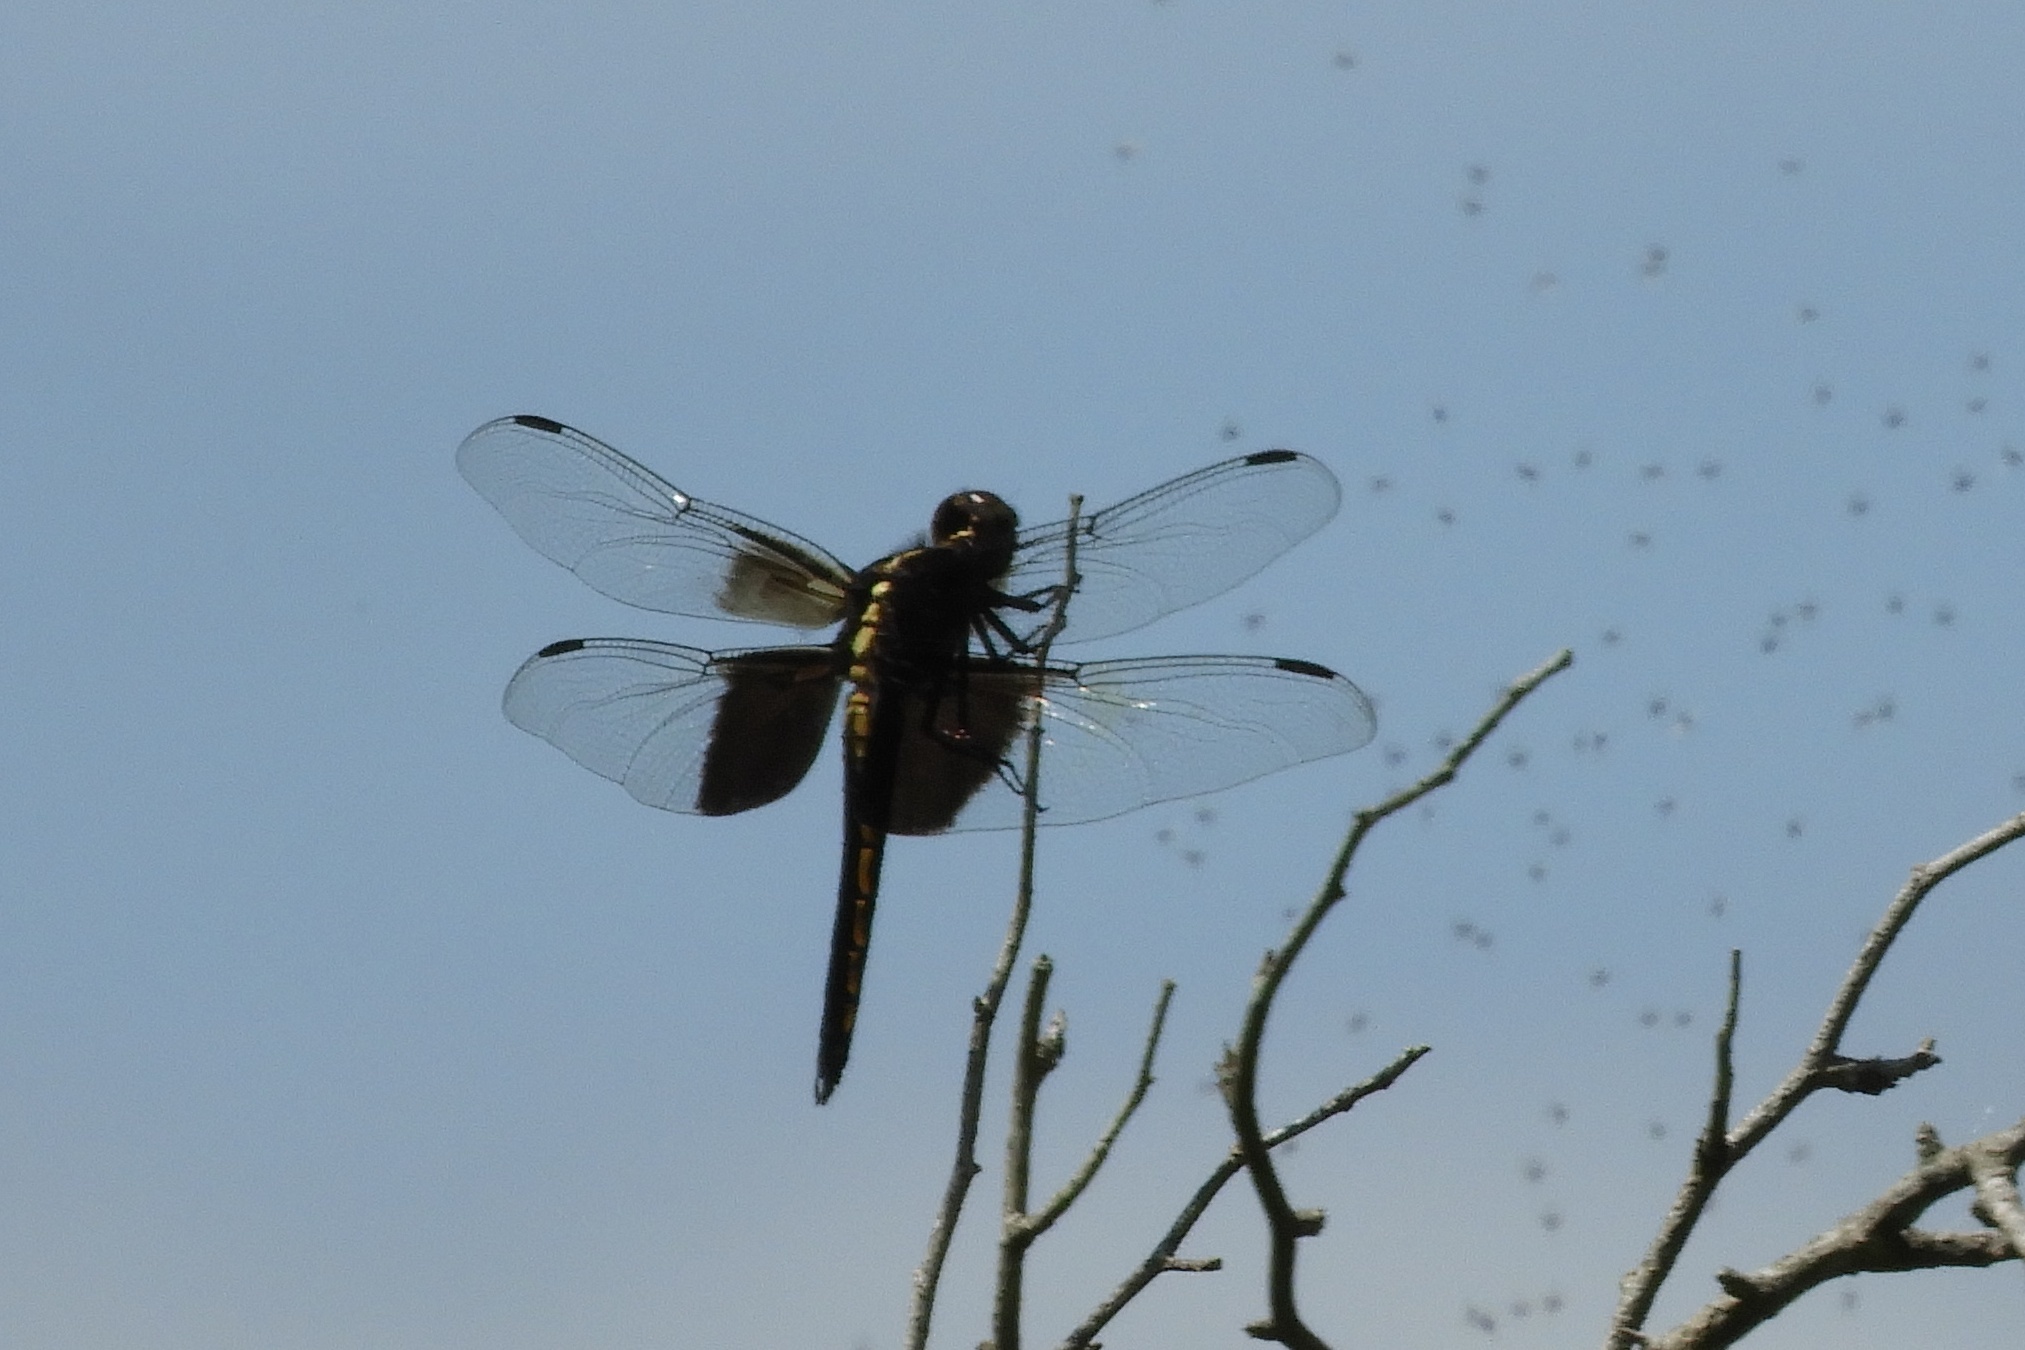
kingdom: Animalia
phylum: Arthropoda
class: Insecta
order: Odonata
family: Libellulidae
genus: Libellula
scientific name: Libellula luctuosa
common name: Widow skimmer
